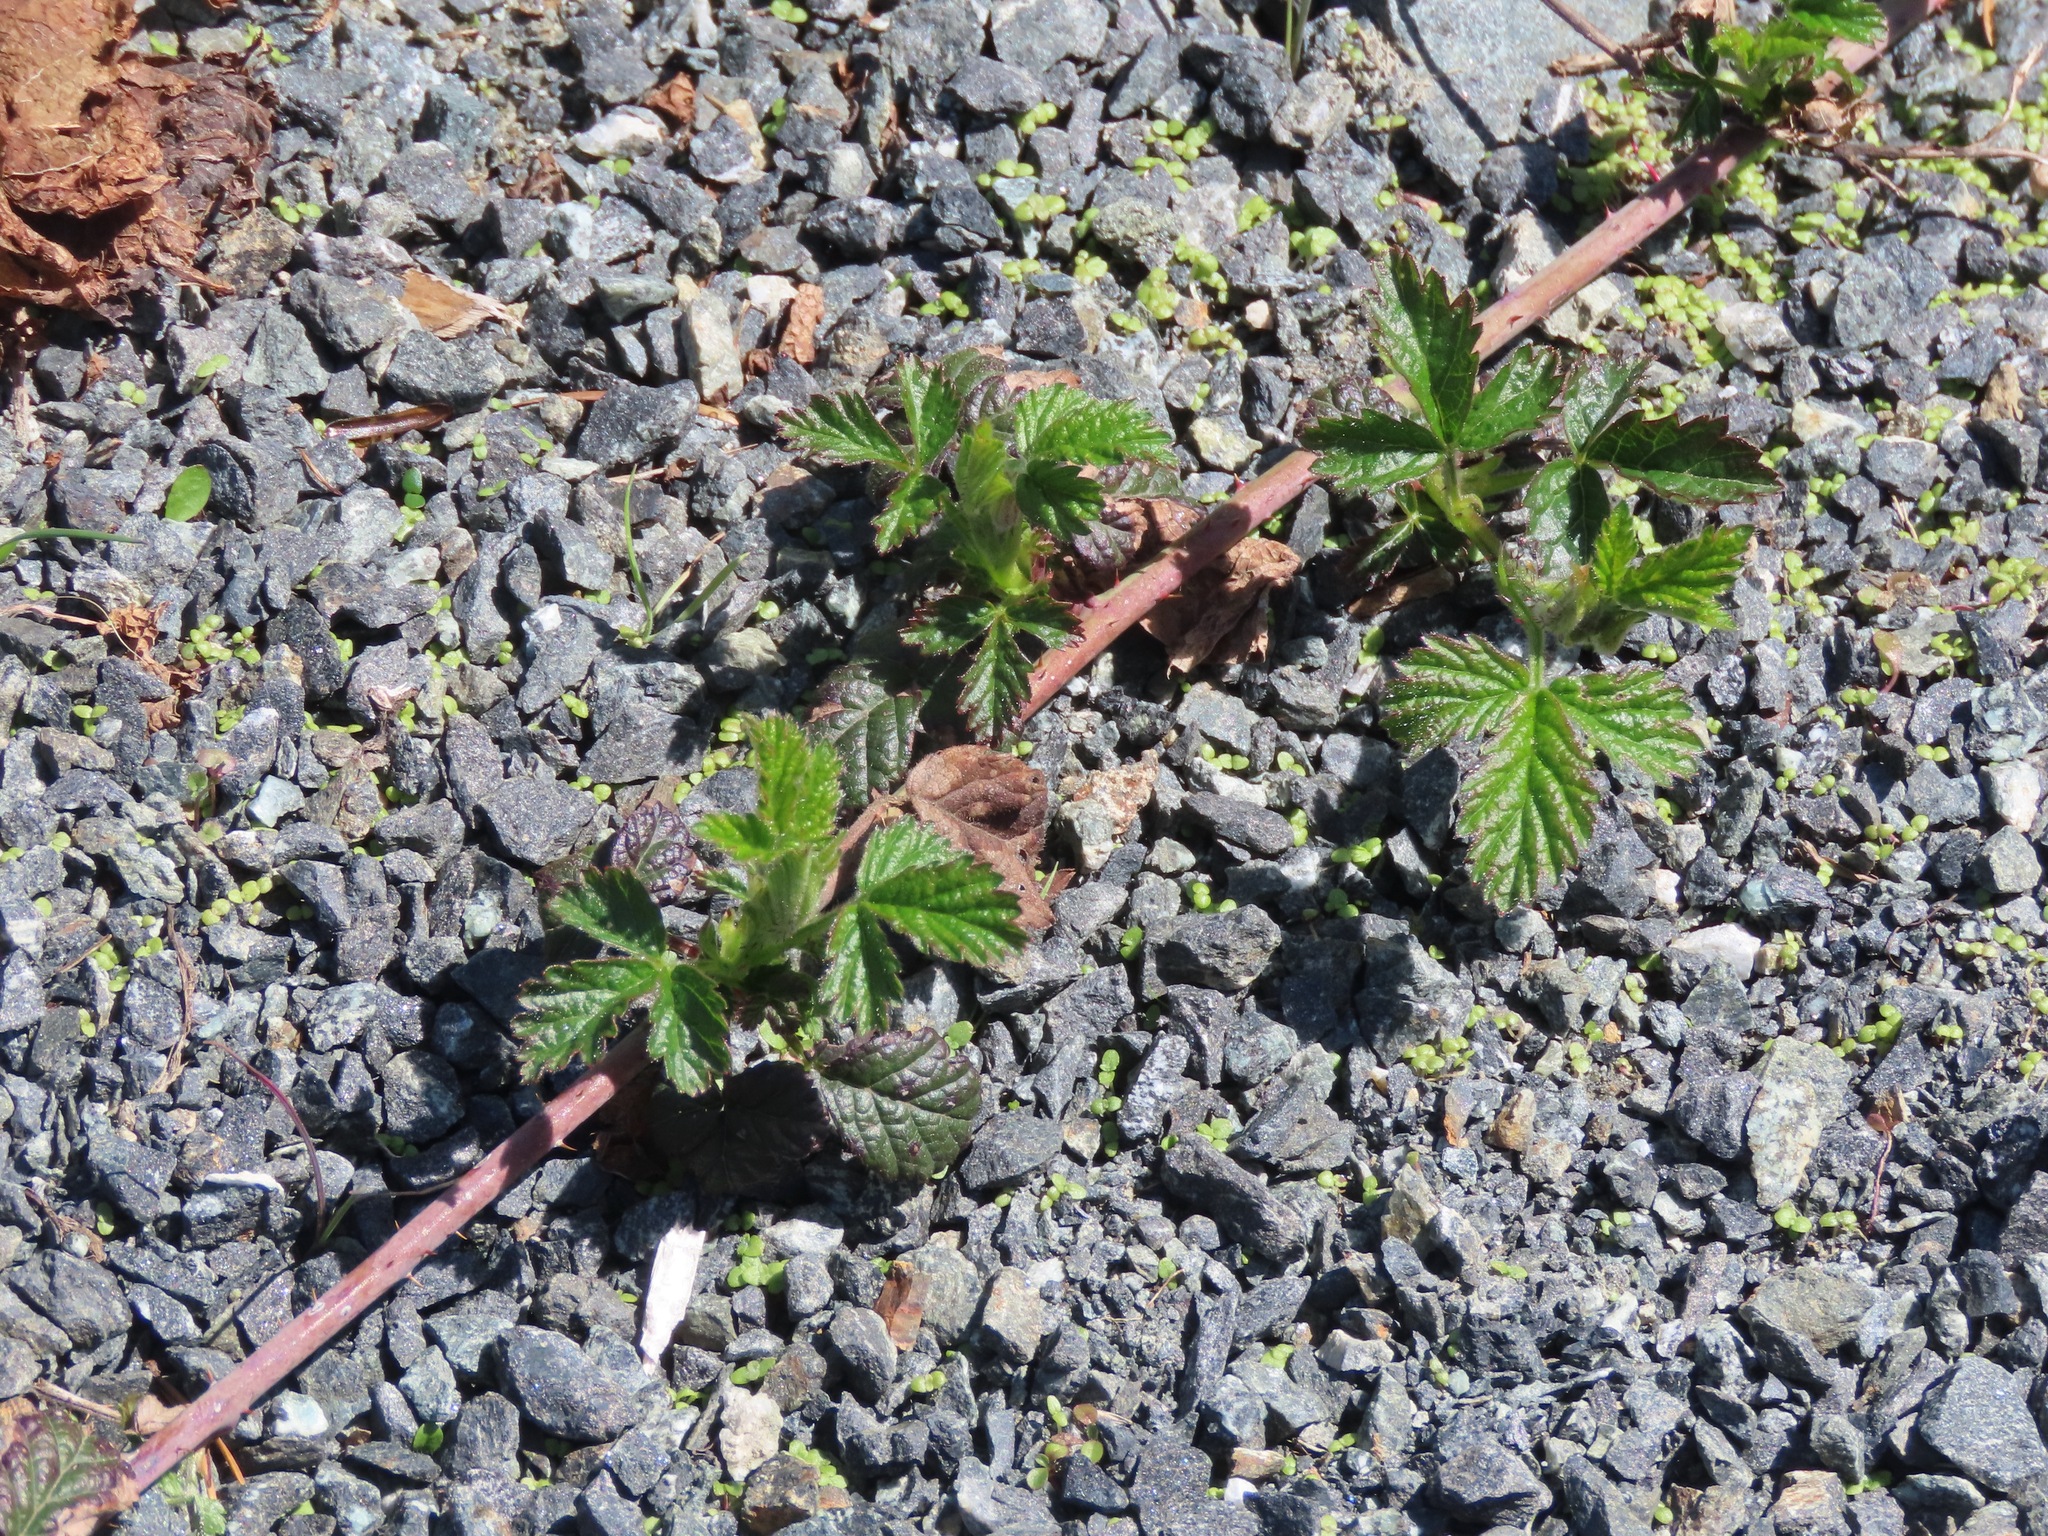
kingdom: Plantae
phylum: Tracheophyta
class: Magnoliopsida
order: Rosales
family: Rosaceae
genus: Rubus
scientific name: Rubus ursinus
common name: Pacific blackberry
